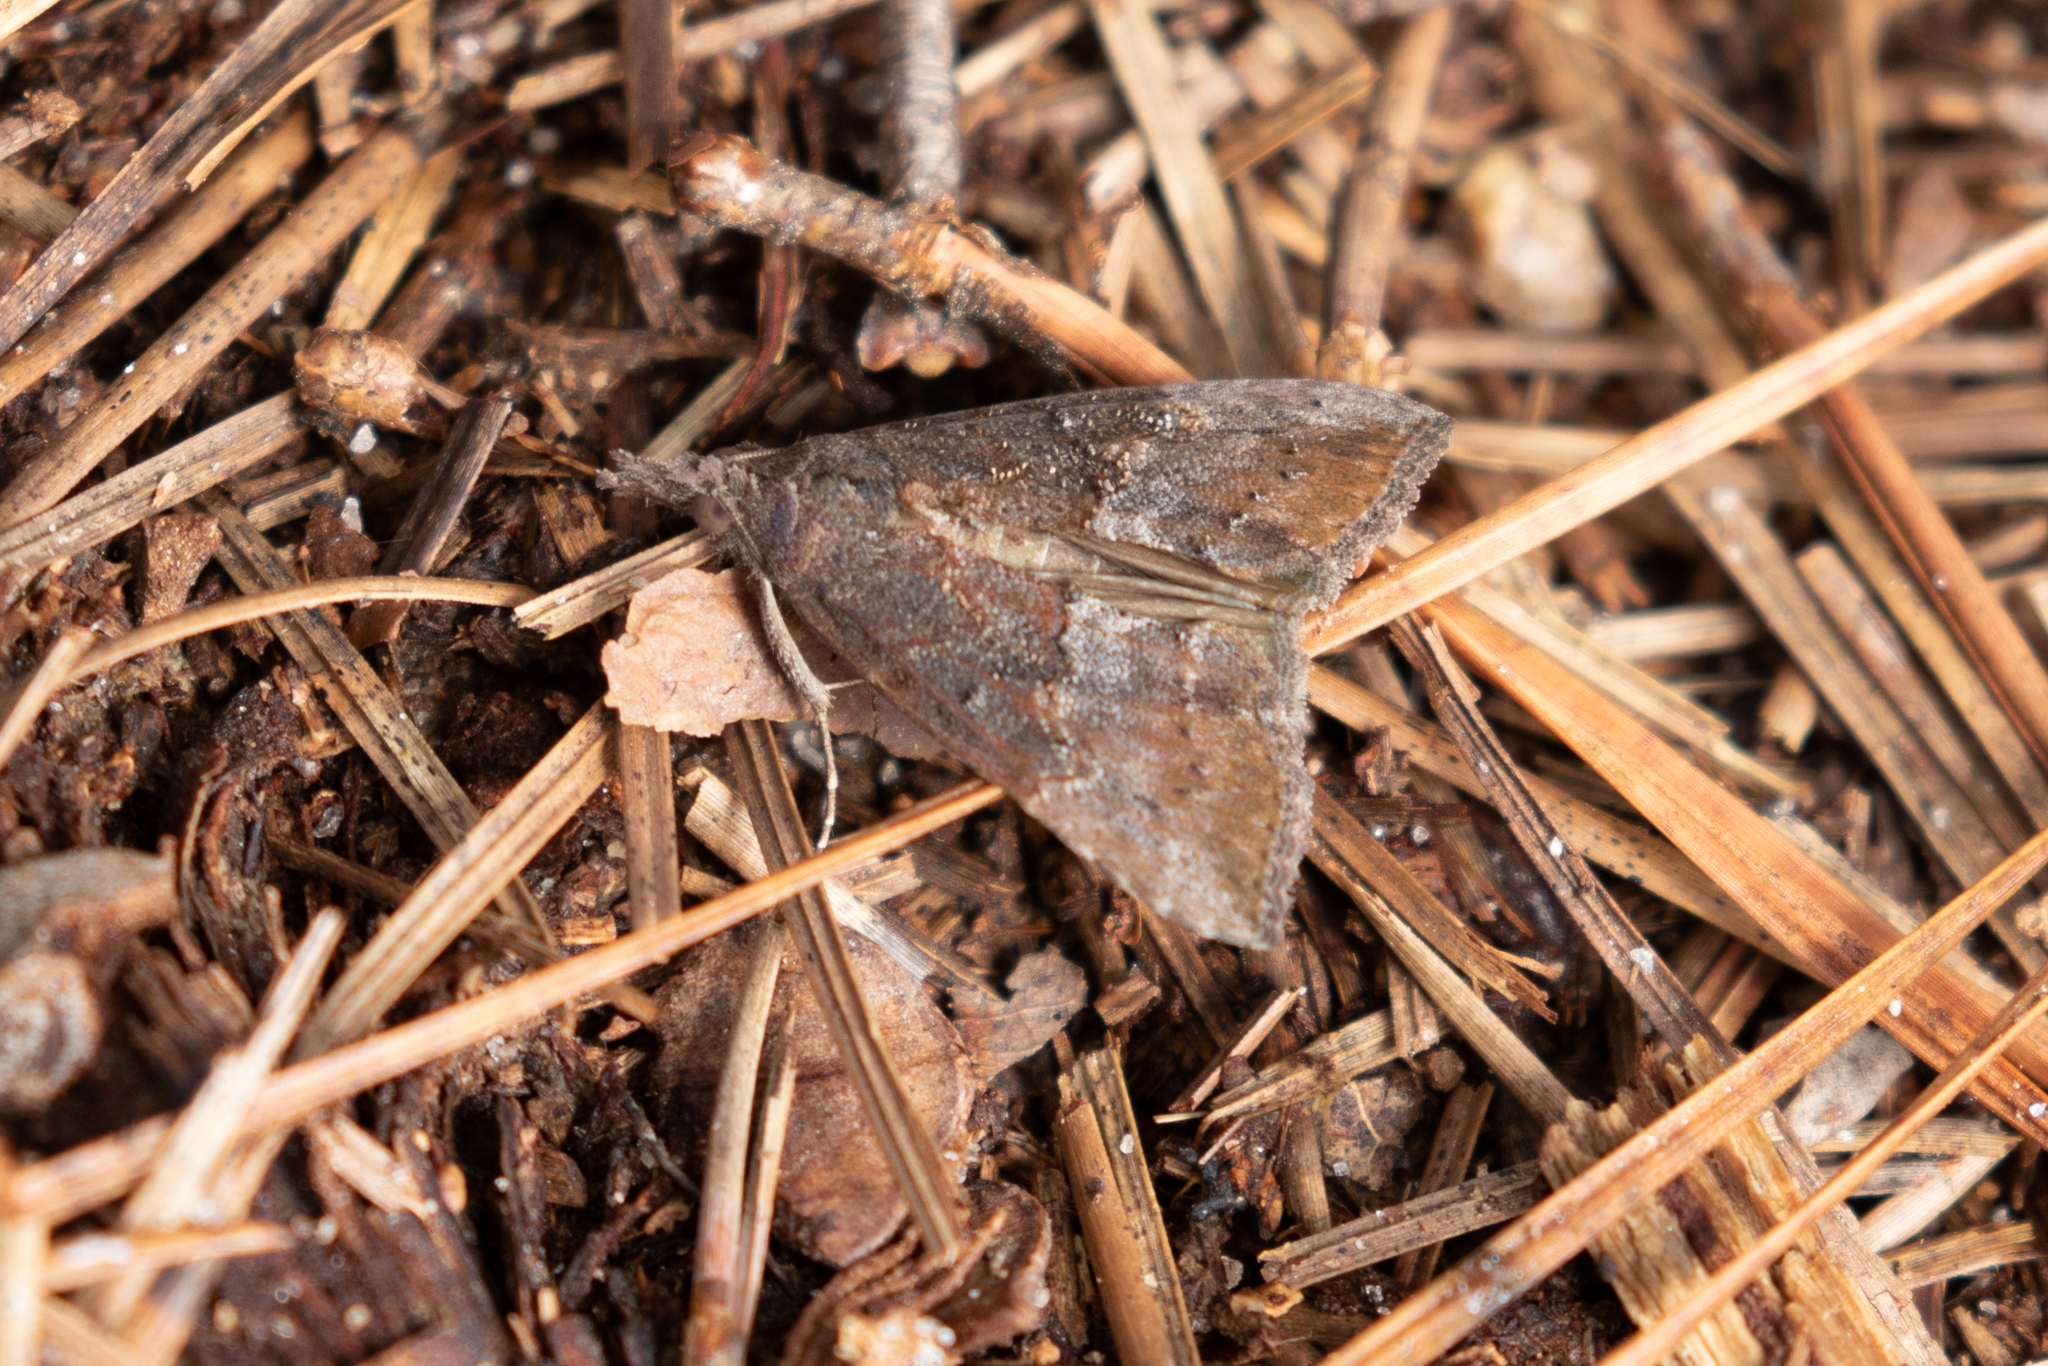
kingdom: Animalia
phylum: Arthropoda
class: Insecta
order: Lepidoptera
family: Erebidae
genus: Hypena
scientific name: Hypena scabra
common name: Green cloverworm
